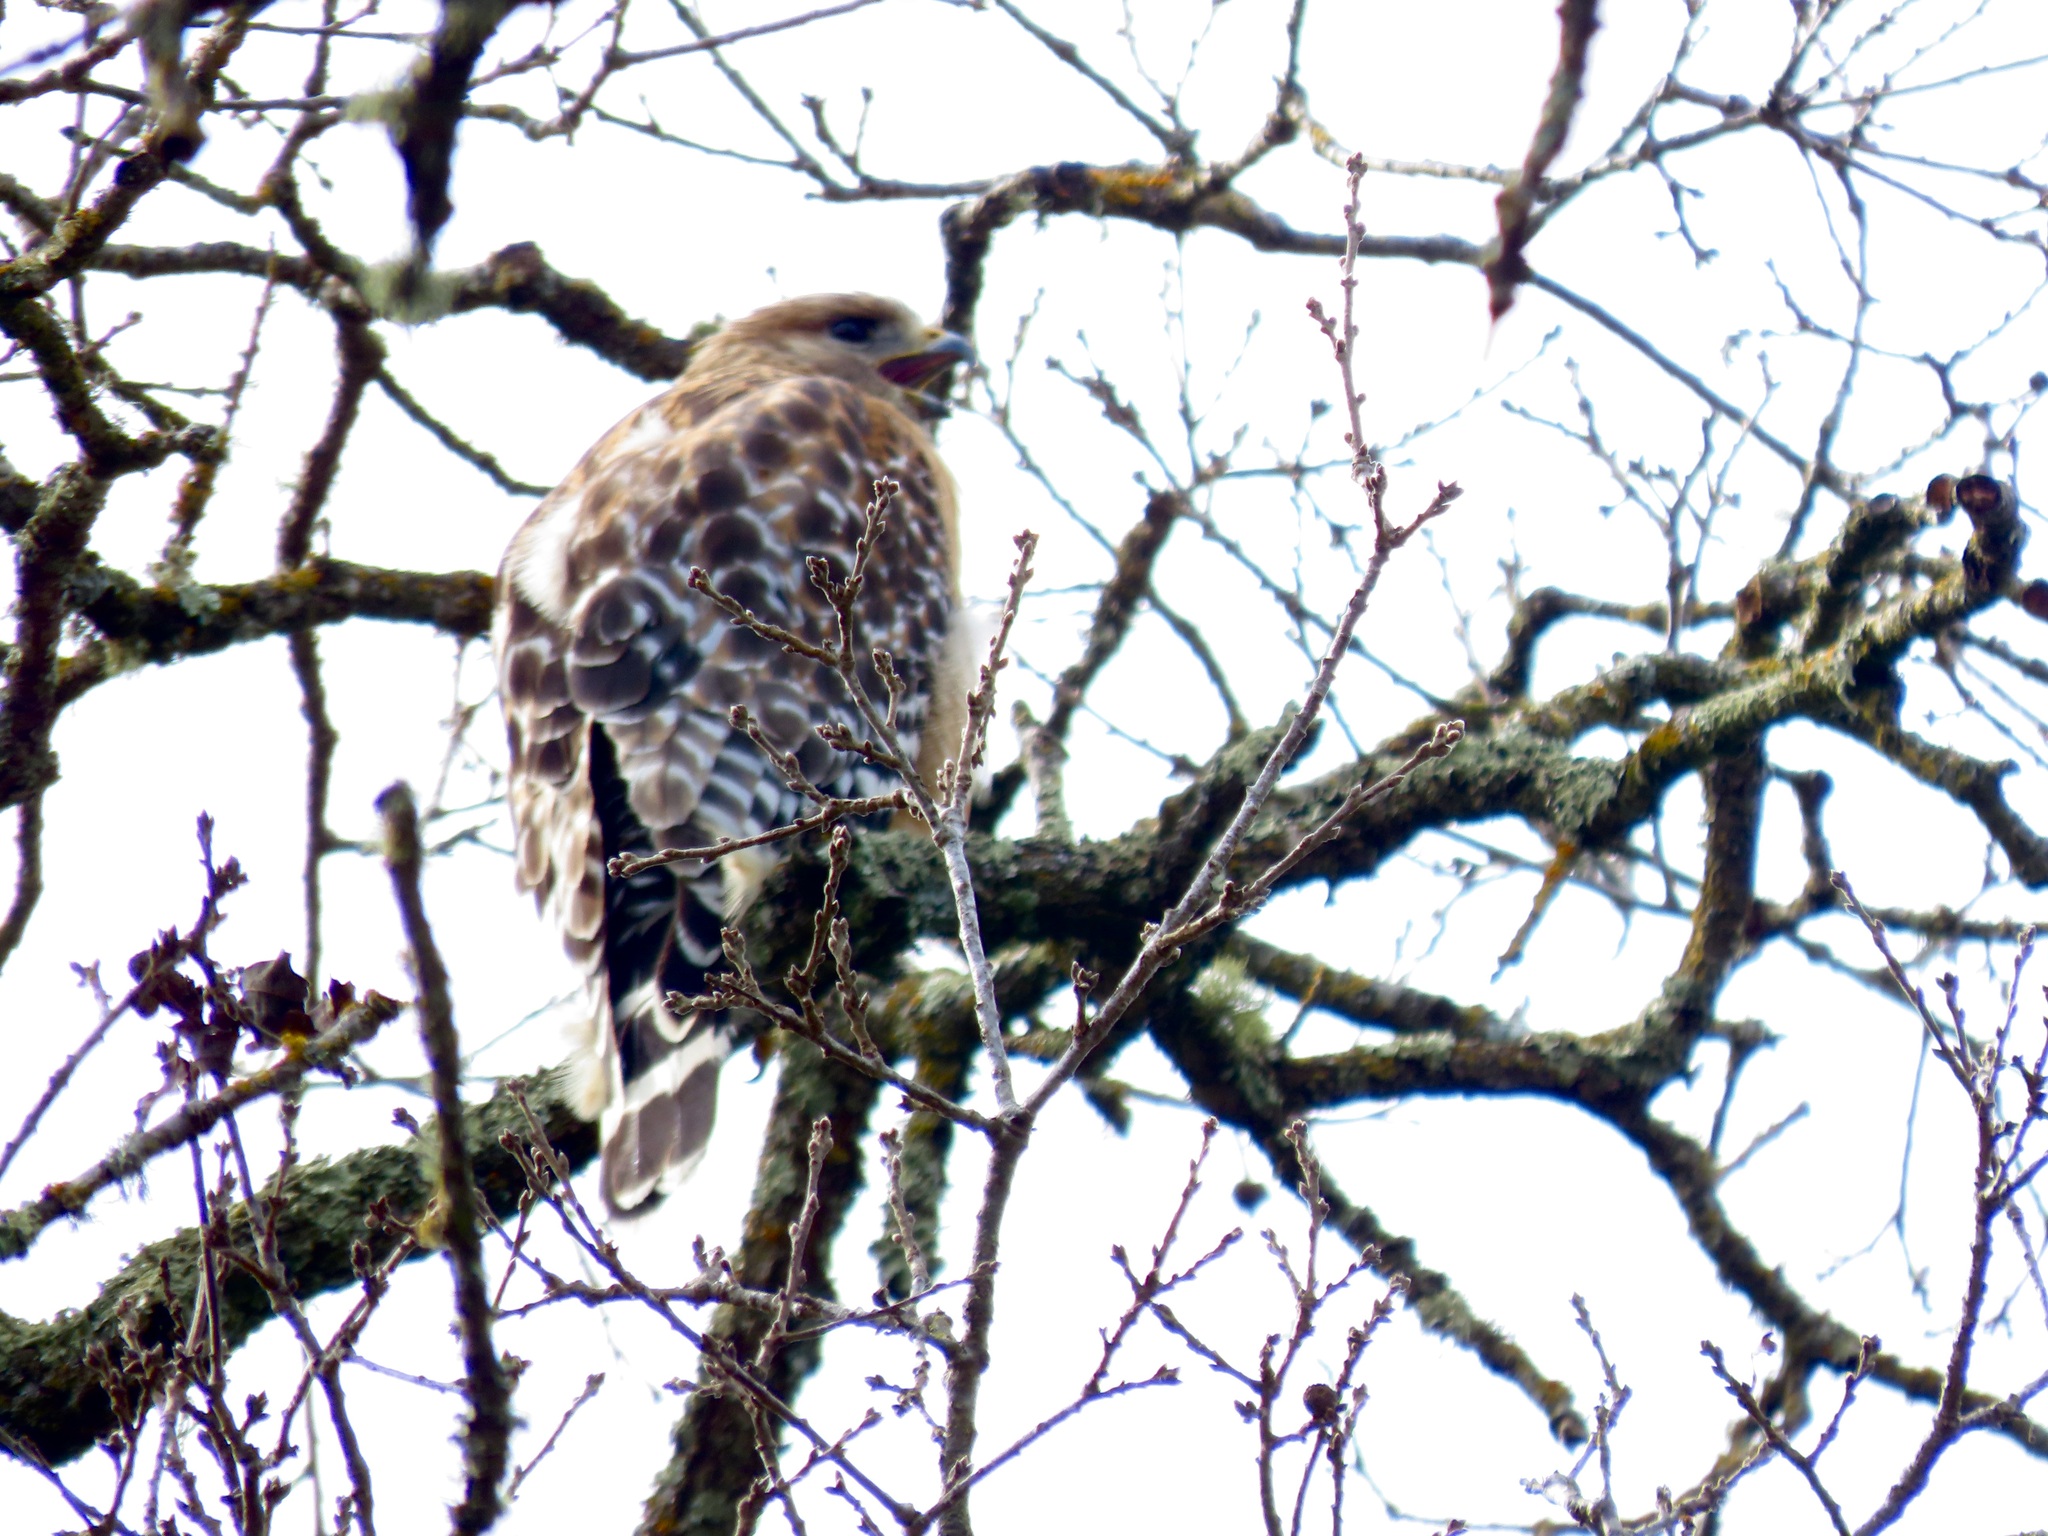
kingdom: Animalia
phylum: Chordata
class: Aves
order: Accipitriformes
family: Accipitridae
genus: Buteo
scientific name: Buteo lineatus
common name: Red-shouldered hawk
